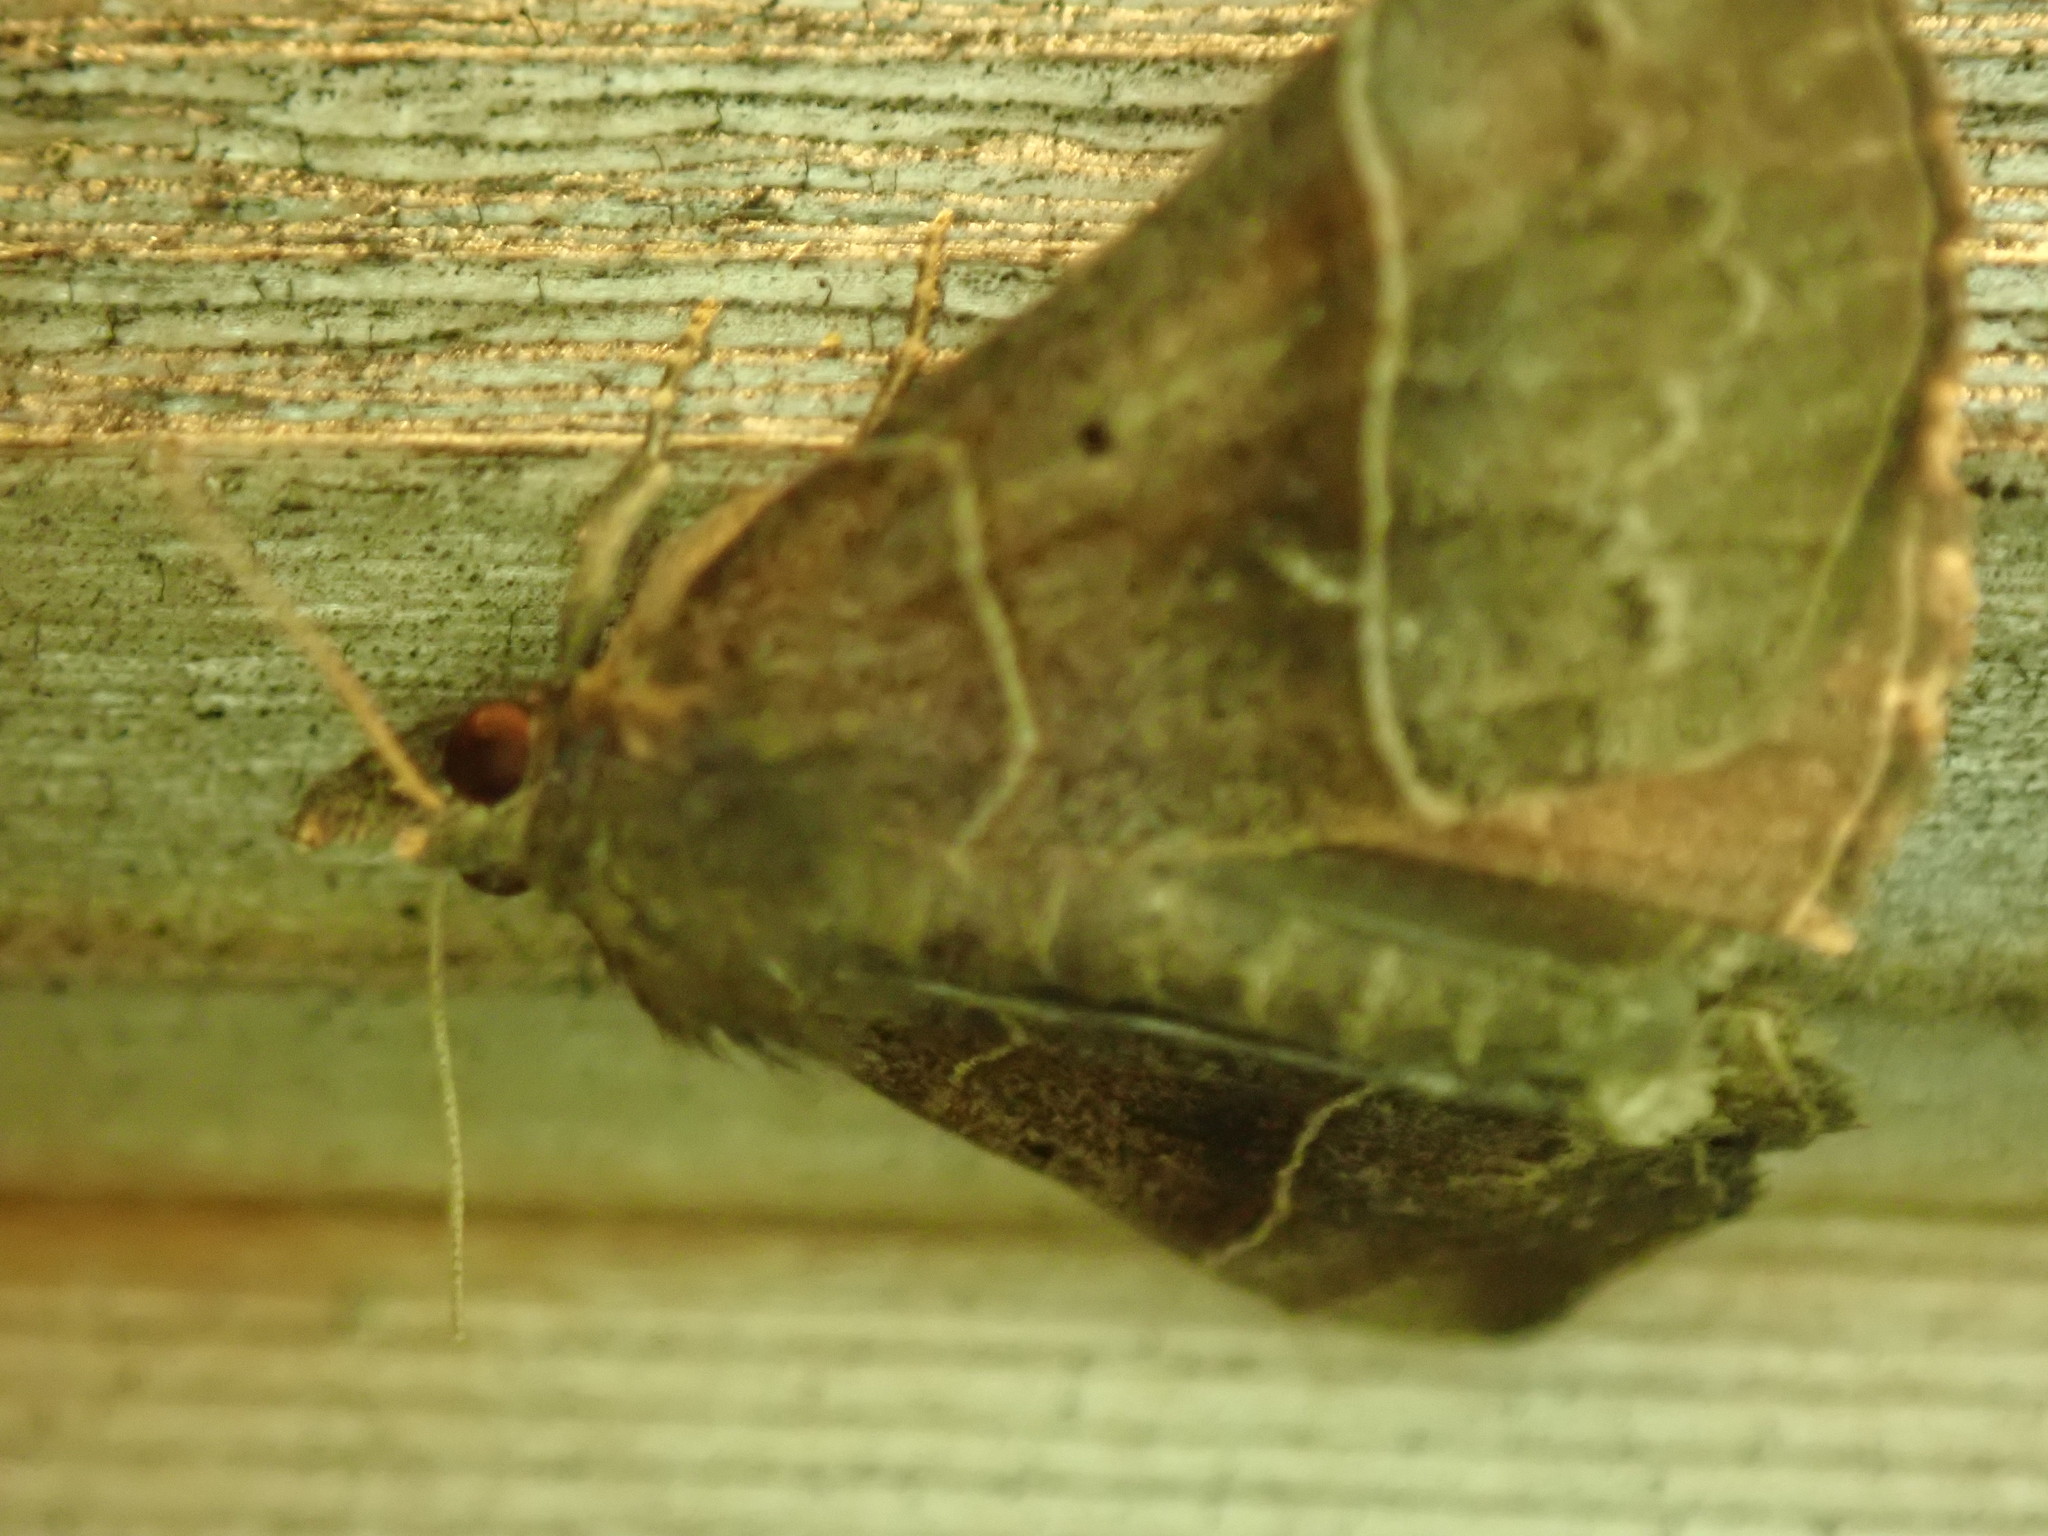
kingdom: Animalia
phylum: Arthropoda
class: Insecta
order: Lepidoptera
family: Erebidae
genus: Hypena
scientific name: Hypena deceptalis
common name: Deceptive snout
